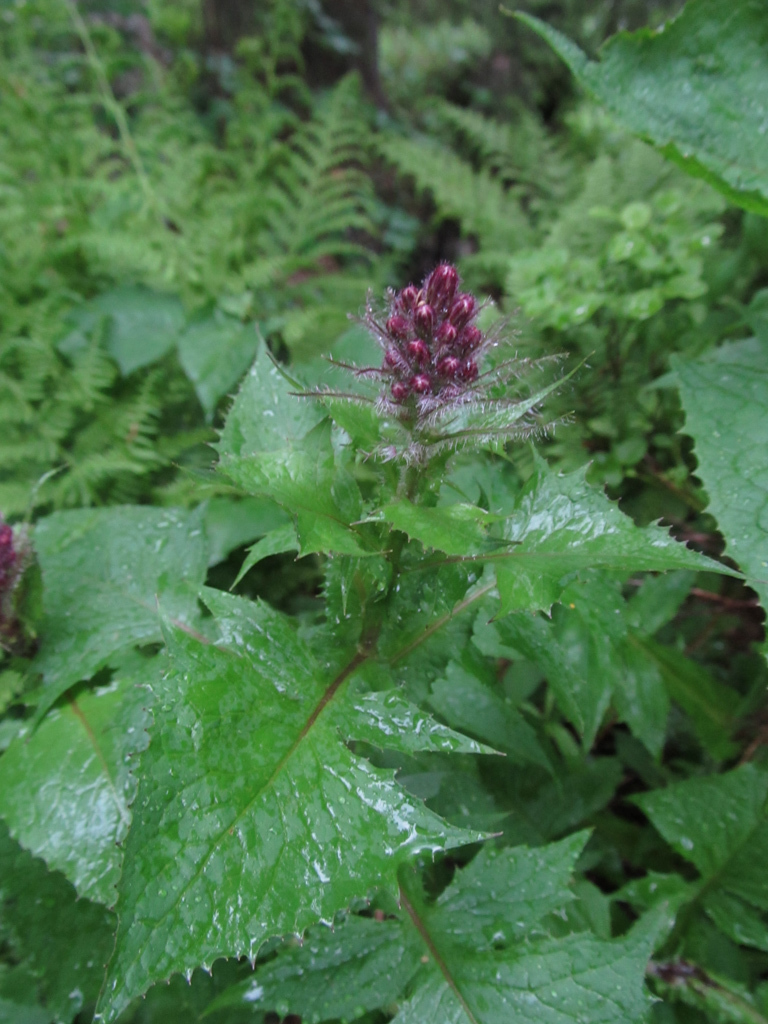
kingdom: Plantae
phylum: Tracheophyta
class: Magnoliopsida
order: Asterales
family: Asteraceae
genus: Cicerbita
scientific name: Cicerbita alpina
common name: Alpine blue-sow-thistle
